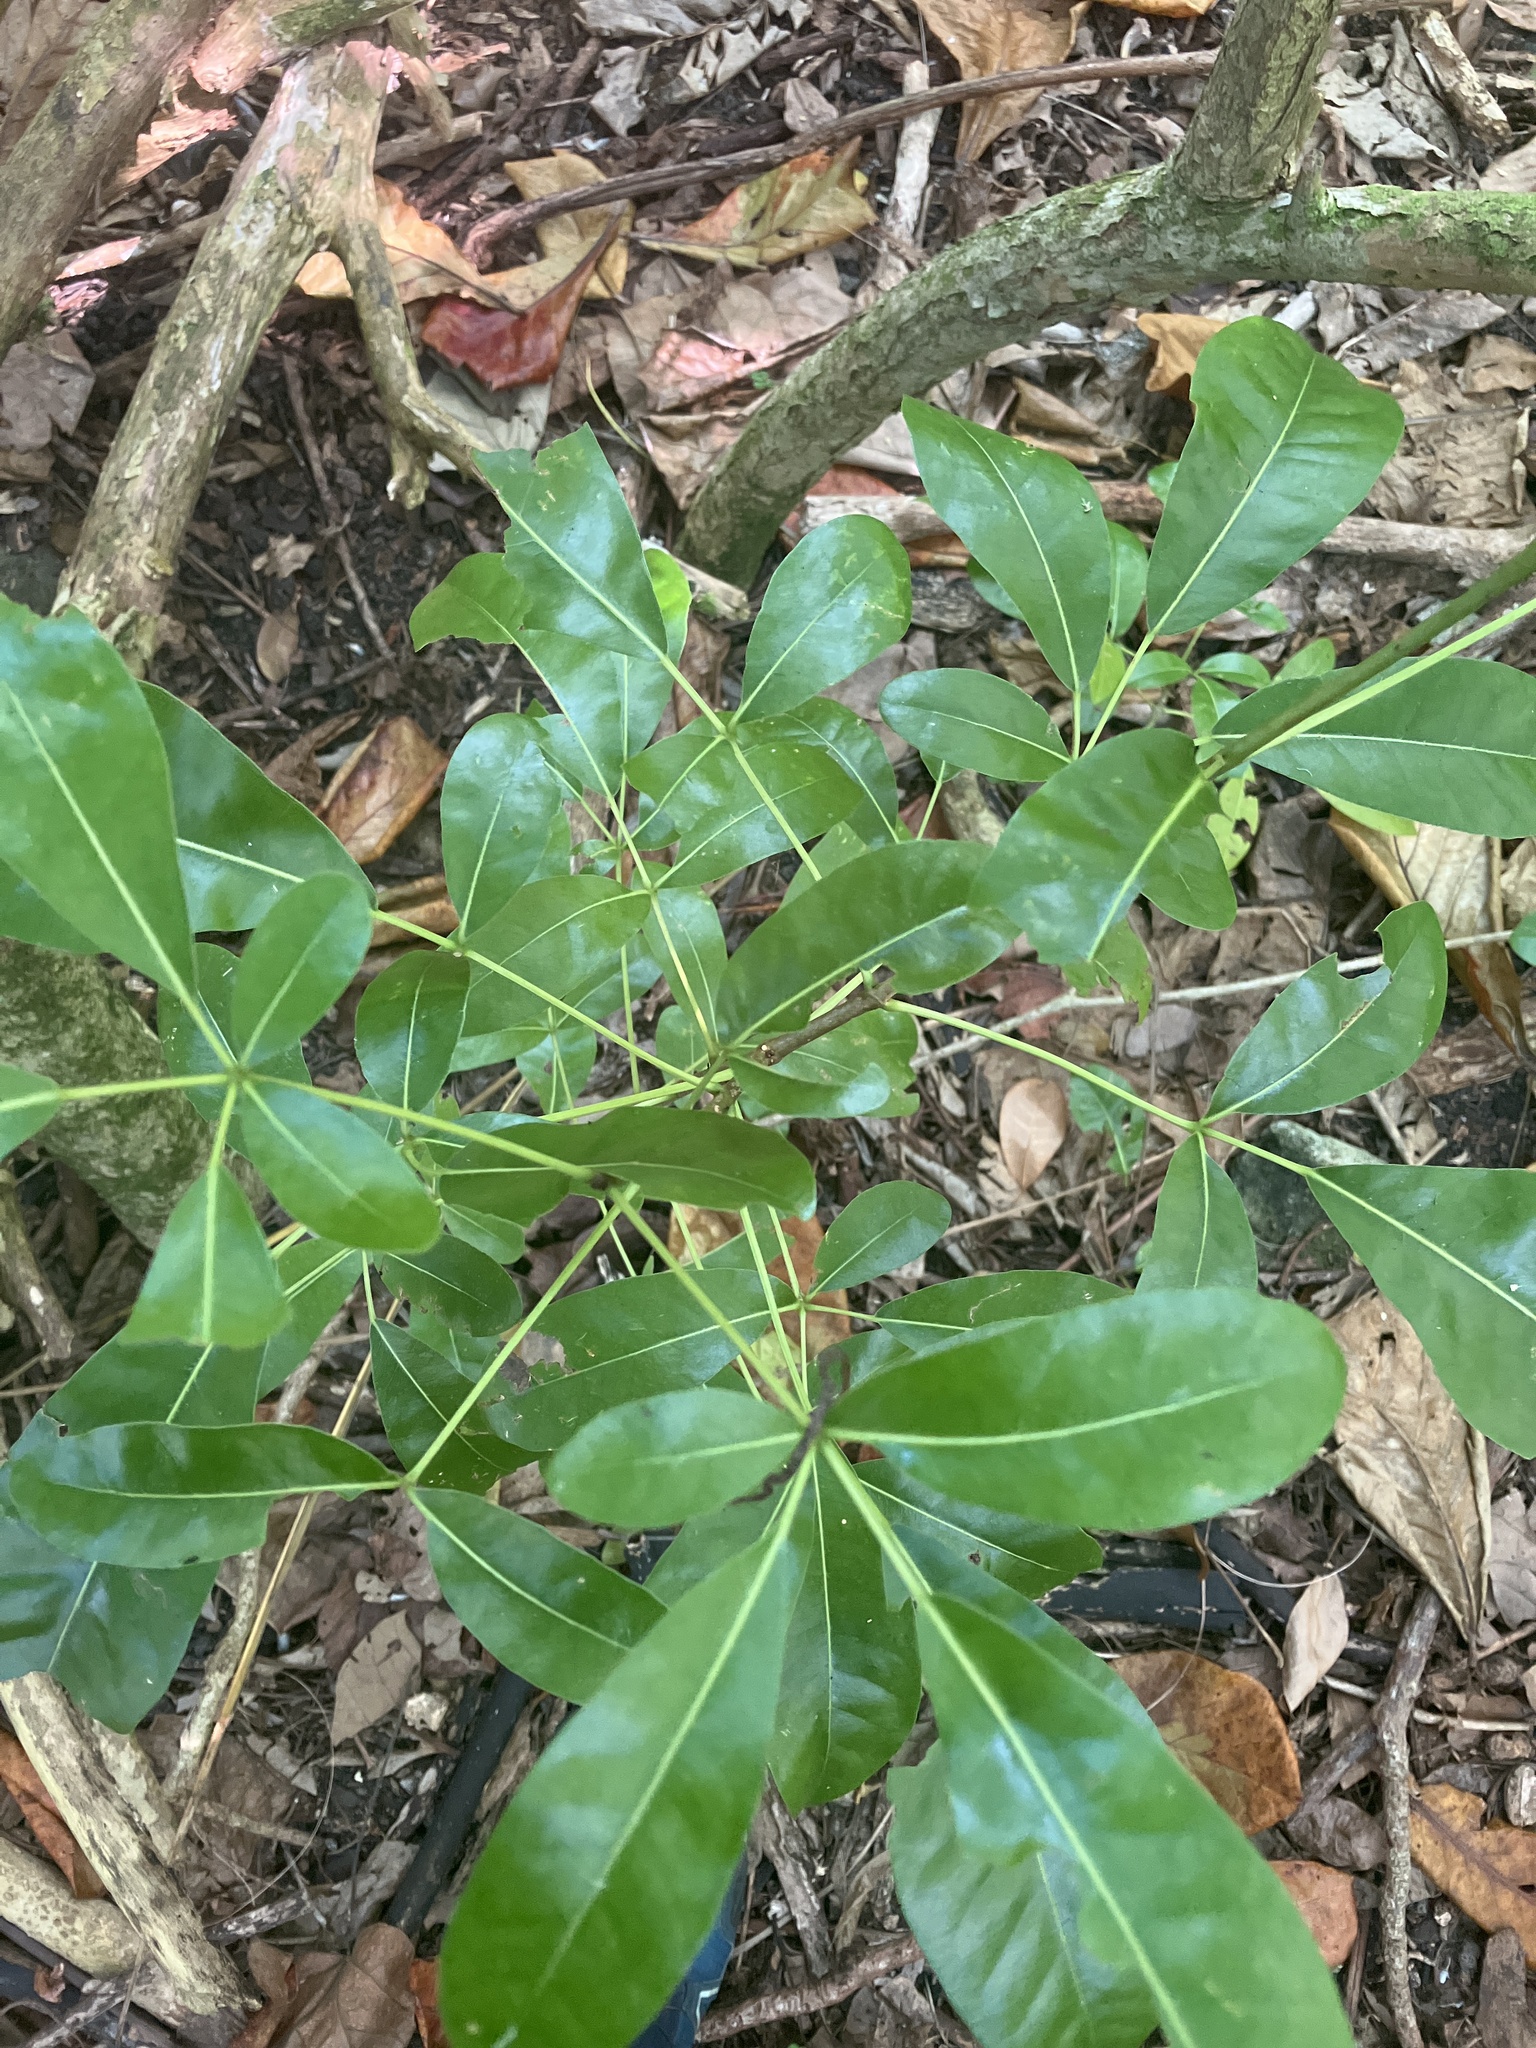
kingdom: Plantae
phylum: Tracheophyta
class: Magnoliopsida
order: Lamiales
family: Bignoniaceae
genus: Tabebuia
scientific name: Tabebuia heterophylla
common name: White cedar
